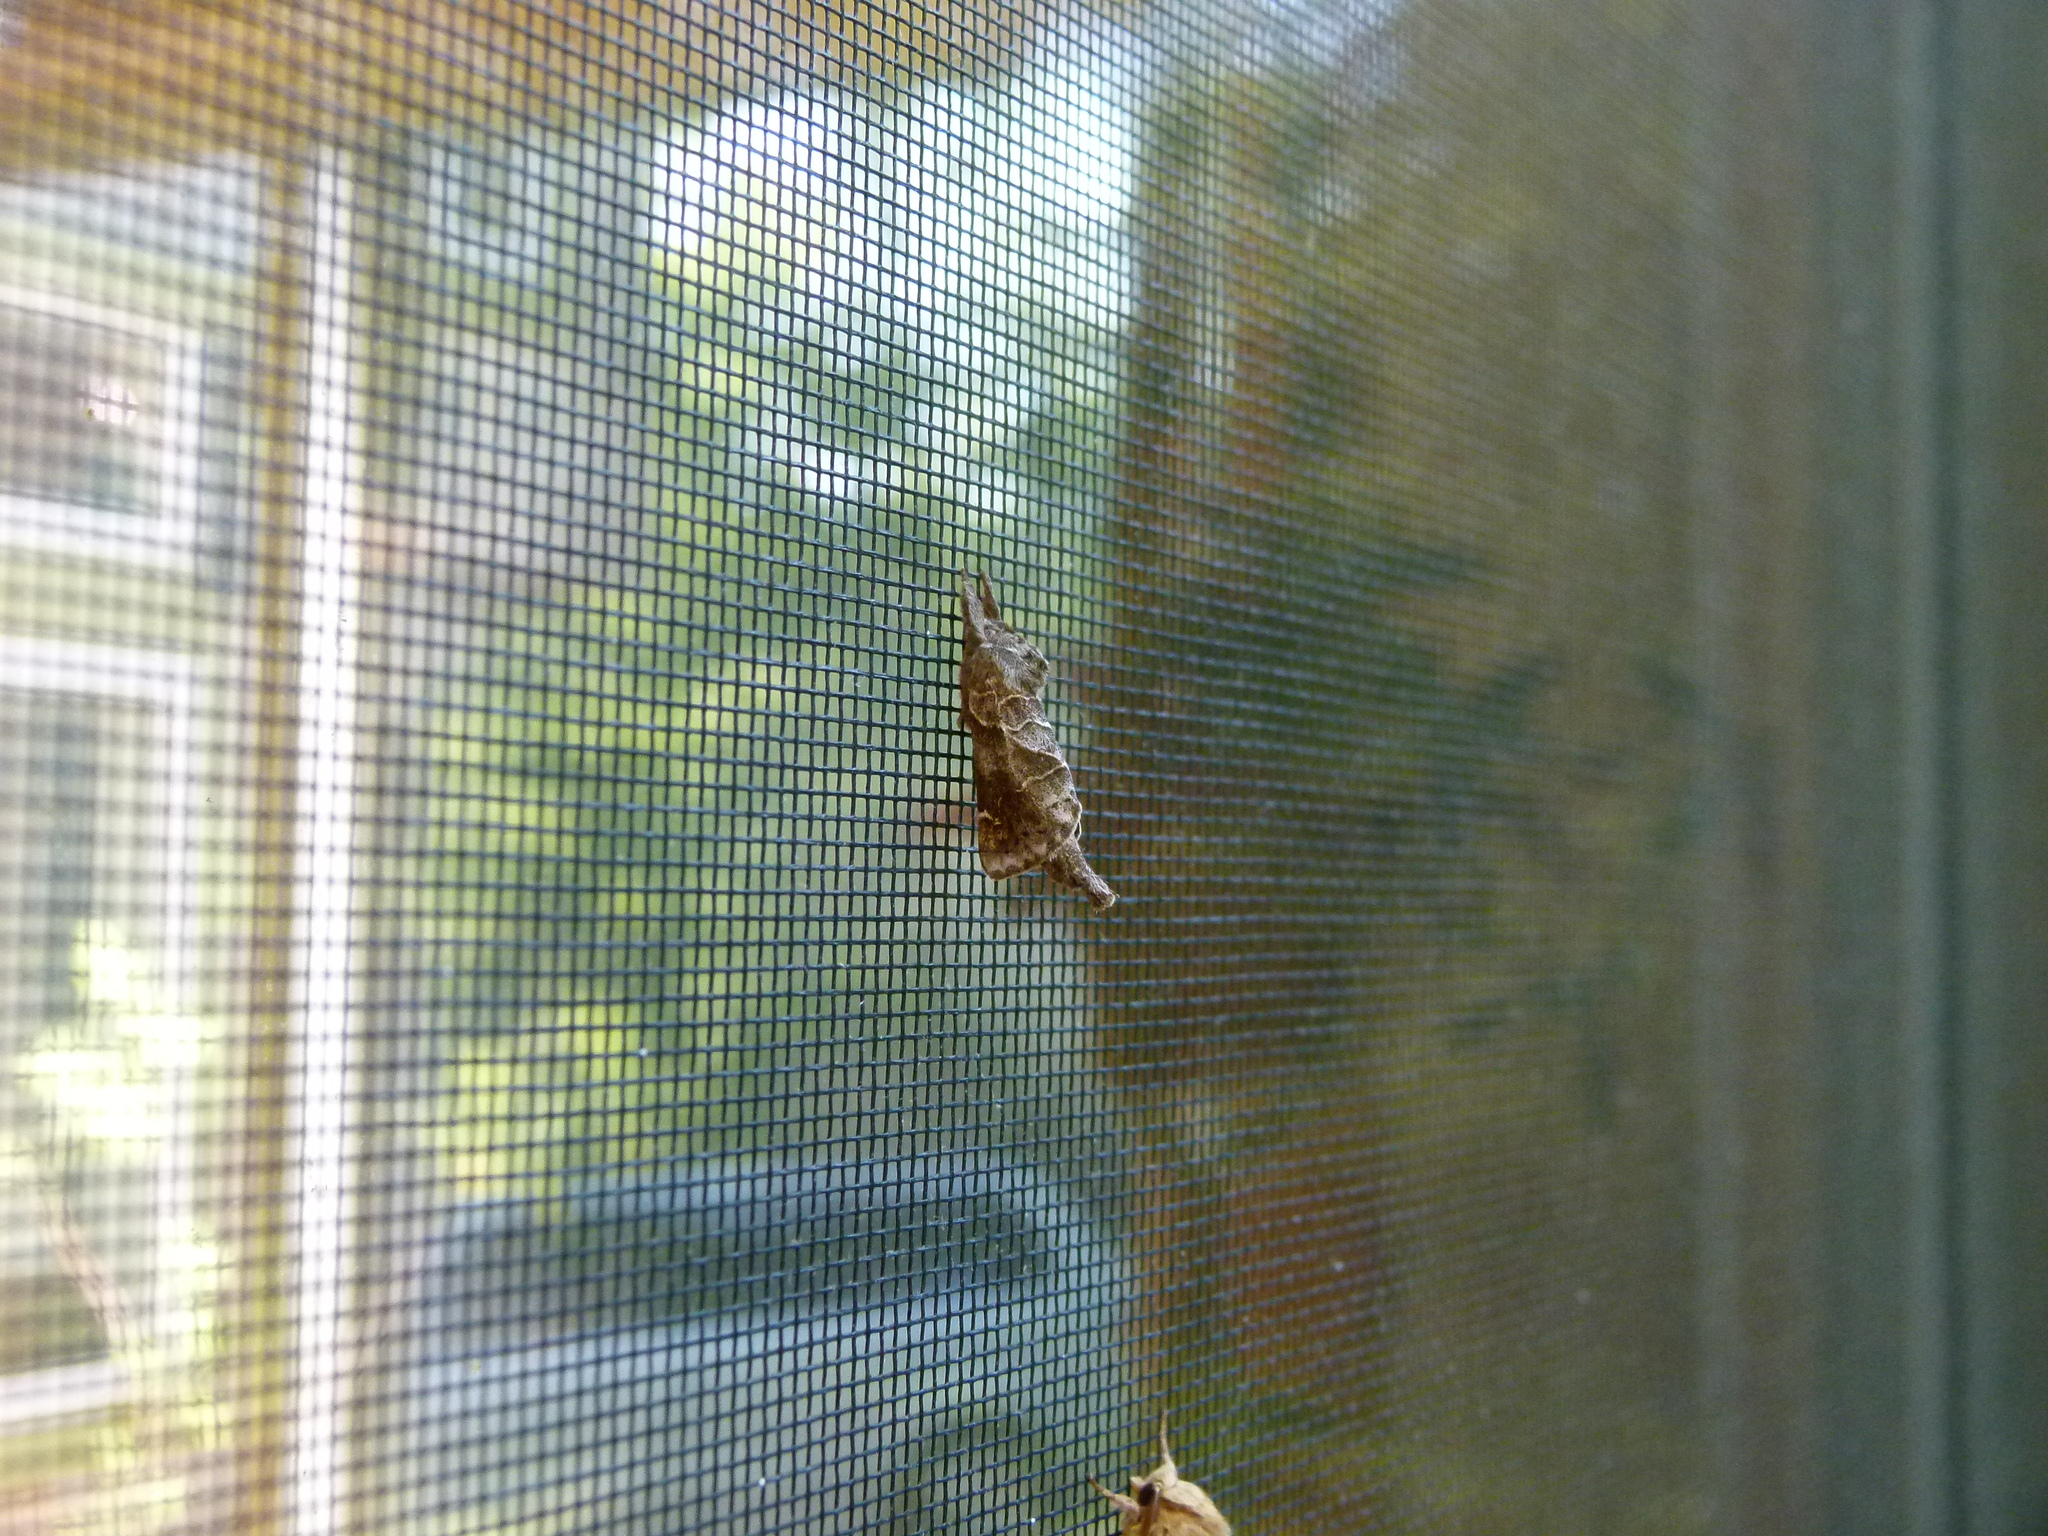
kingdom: Animalia
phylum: Arthropoda
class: Insecta
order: Lepidoptera
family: Notodontidae
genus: Clostera
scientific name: Clostera strigosa
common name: Striped chocolate-tip moth
